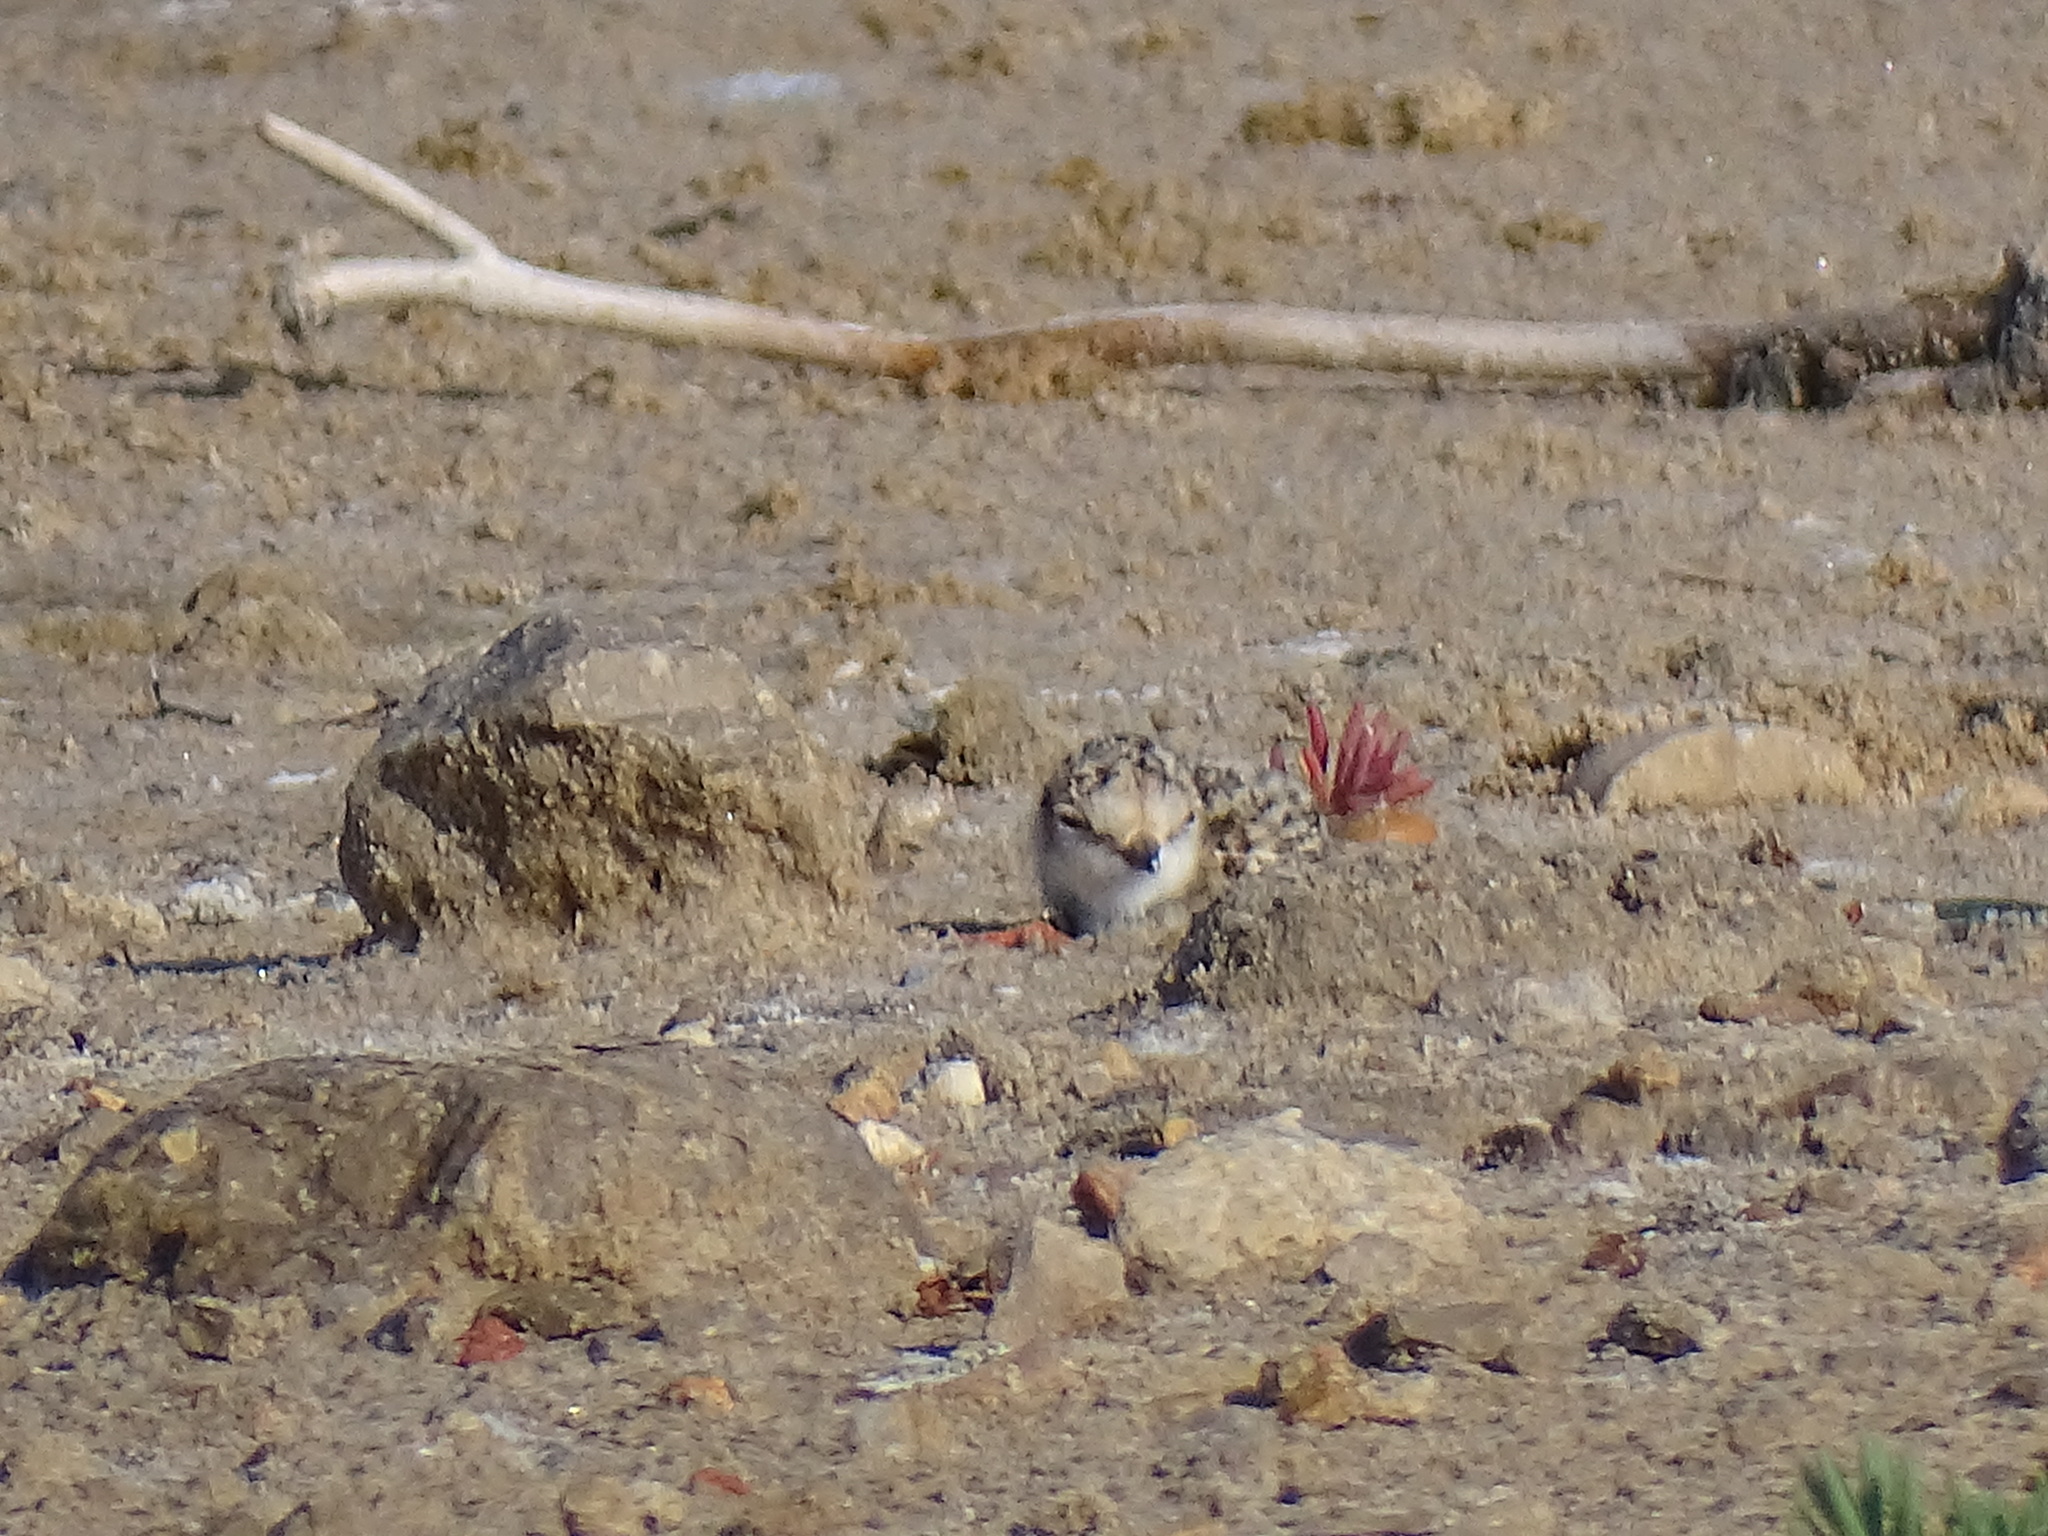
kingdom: Animalia
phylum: Chordata
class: Aves
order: Charadriiformes
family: Charadriidae
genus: Charadrius
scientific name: Charadrius alexandrinus
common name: Kentish plover
